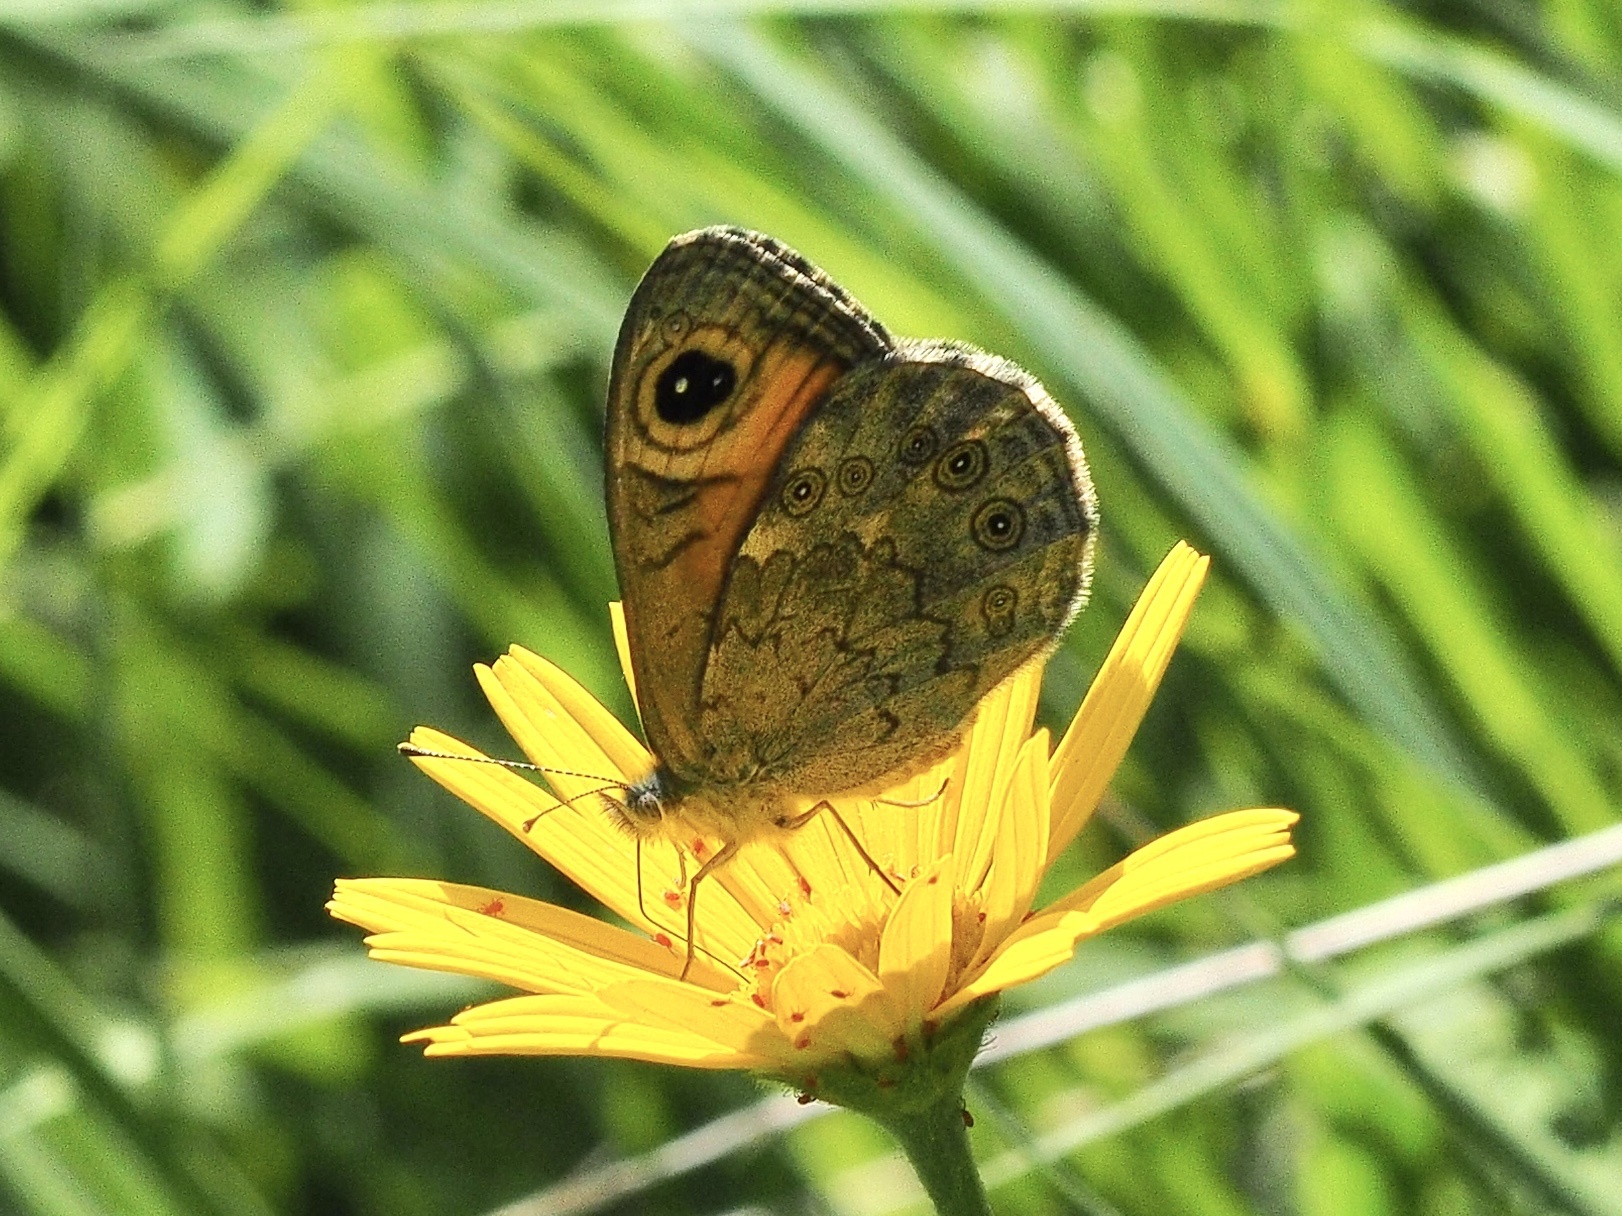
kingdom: Animalia
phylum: Arthropoda
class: Insecta
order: Lepidoptera
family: Nymphalidae
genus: Pararge
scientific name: Pararge Lasiommata maera
